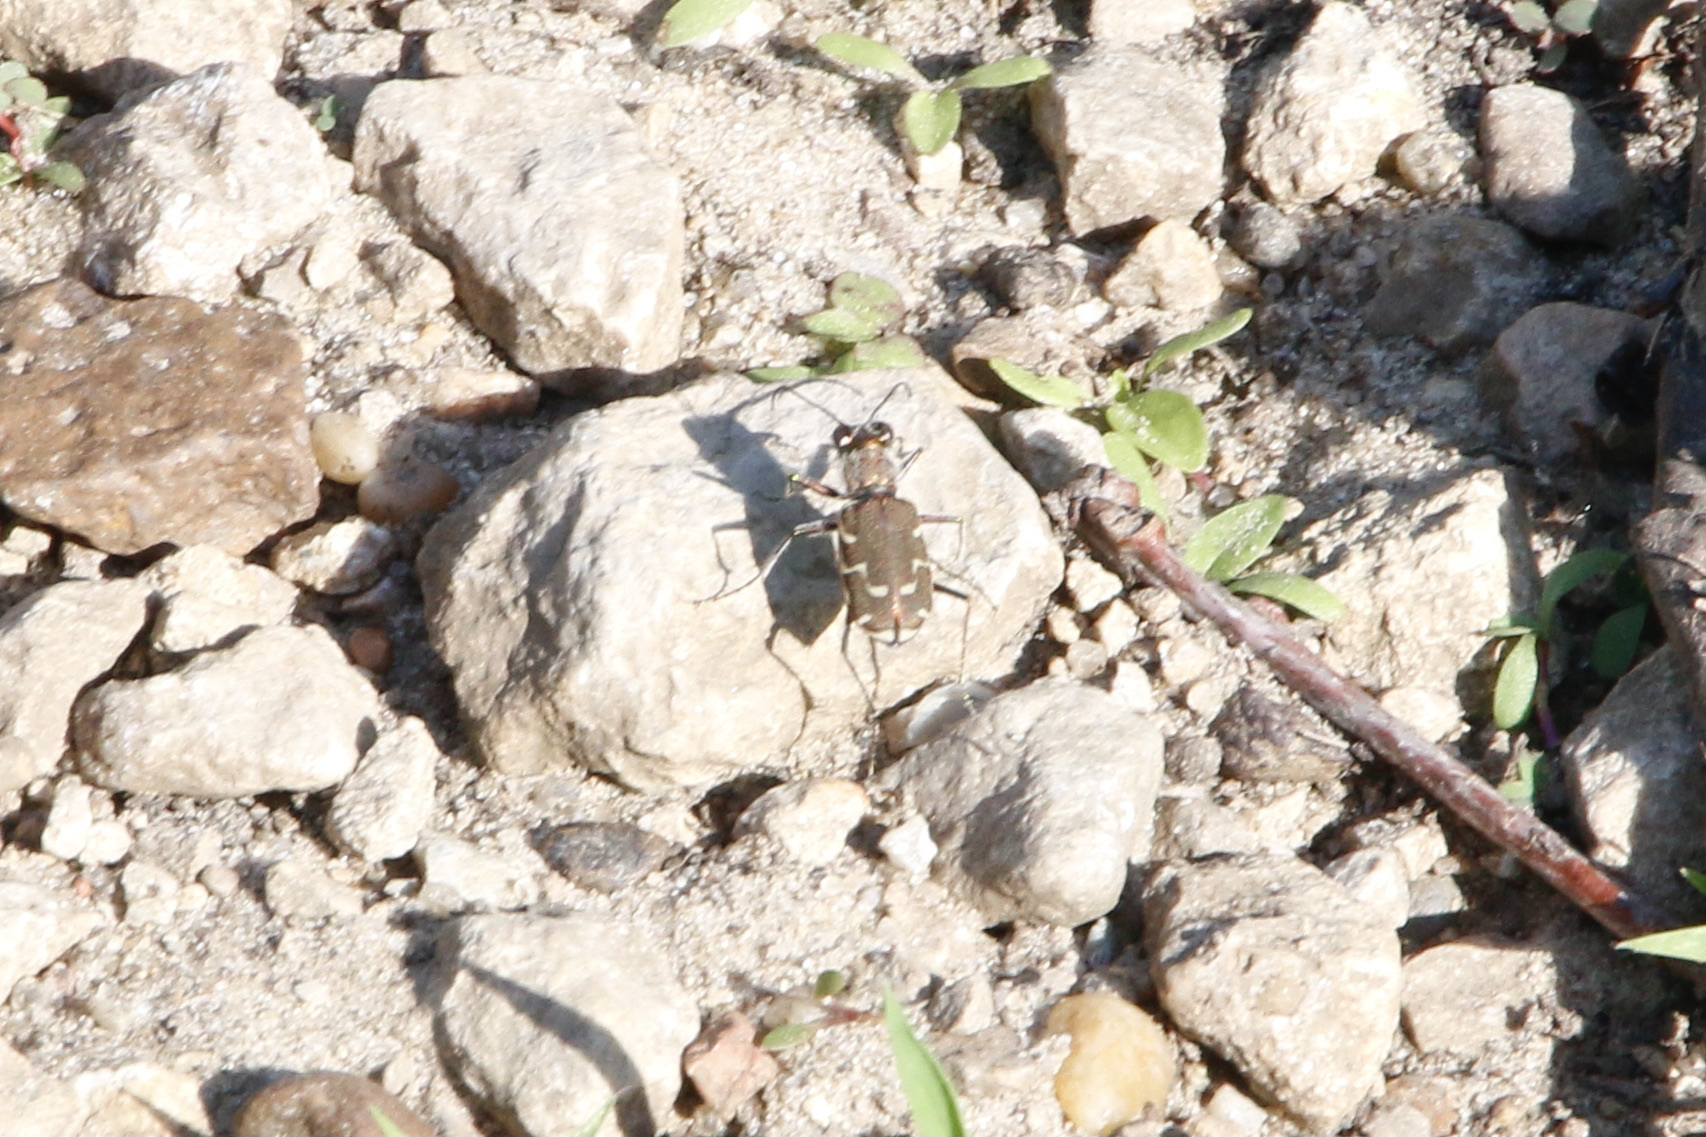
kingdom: Animalia
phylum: Arthropoda
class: Insecta
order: Coleoptera
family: Carabidae
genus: Cicindela
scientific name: Cicindela repanda
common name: Bronzed tiger beetle
